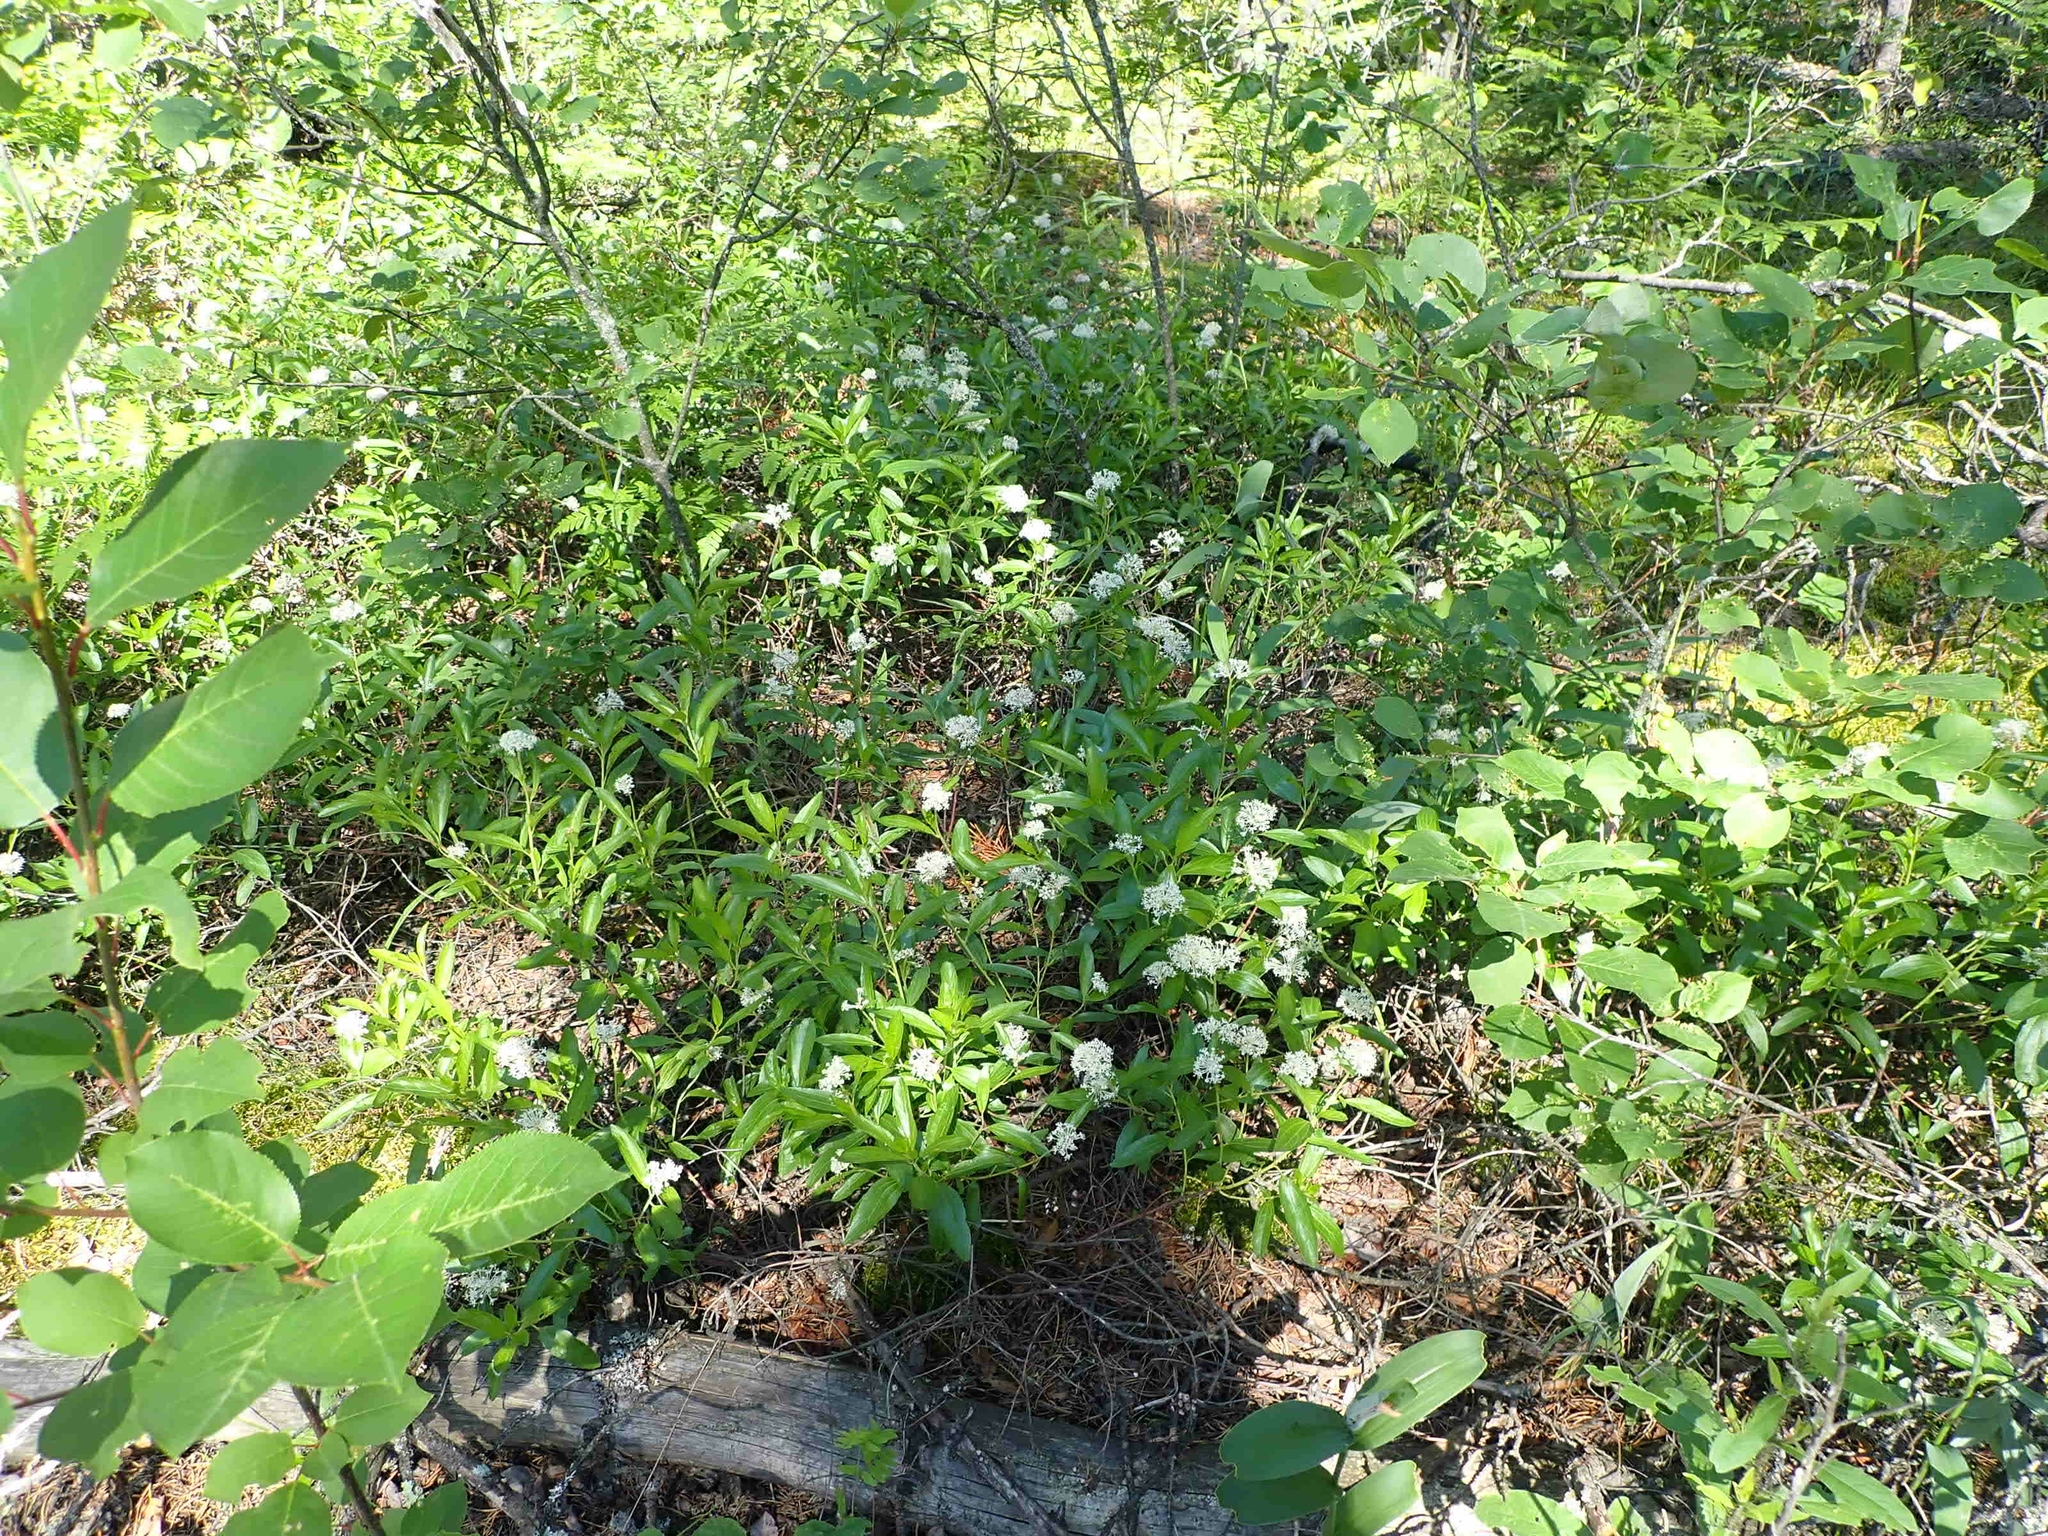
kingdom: Plantae
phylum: Tracheophyta
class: Magnoliopsida
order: Rosales
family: Rhamnaceae
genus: Ceanothus
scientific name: Ceanothus herbaceus
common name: Inland ceanothus
